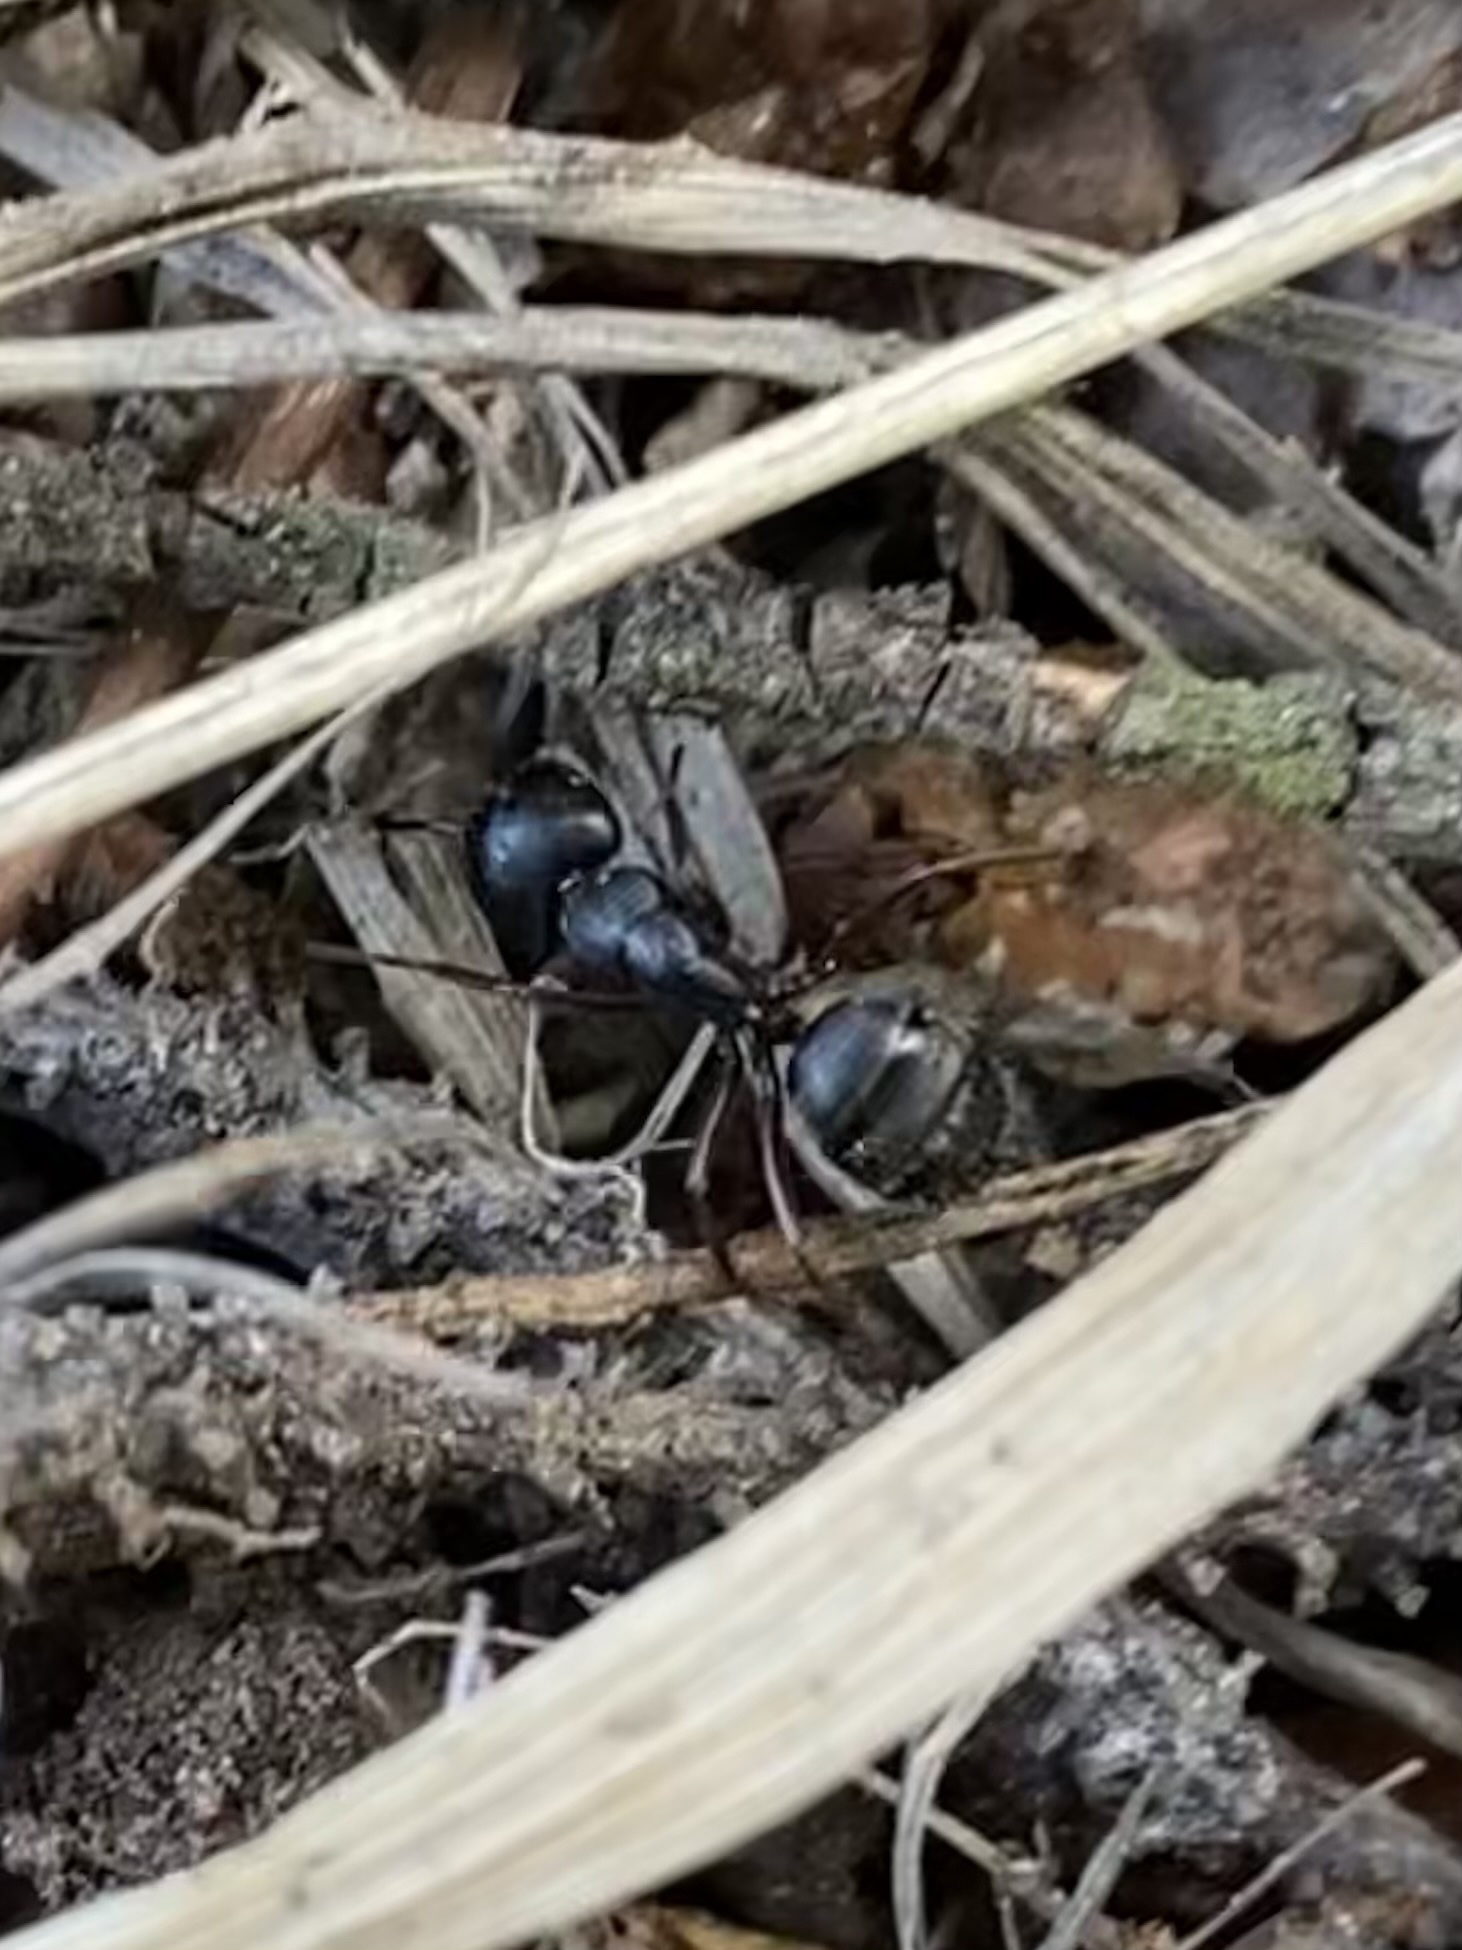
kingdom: Animalia
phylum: Arthropoda
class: Insecta
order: Hymenoptera
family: Formicidae
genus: Camponotus
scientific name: Camponotus
